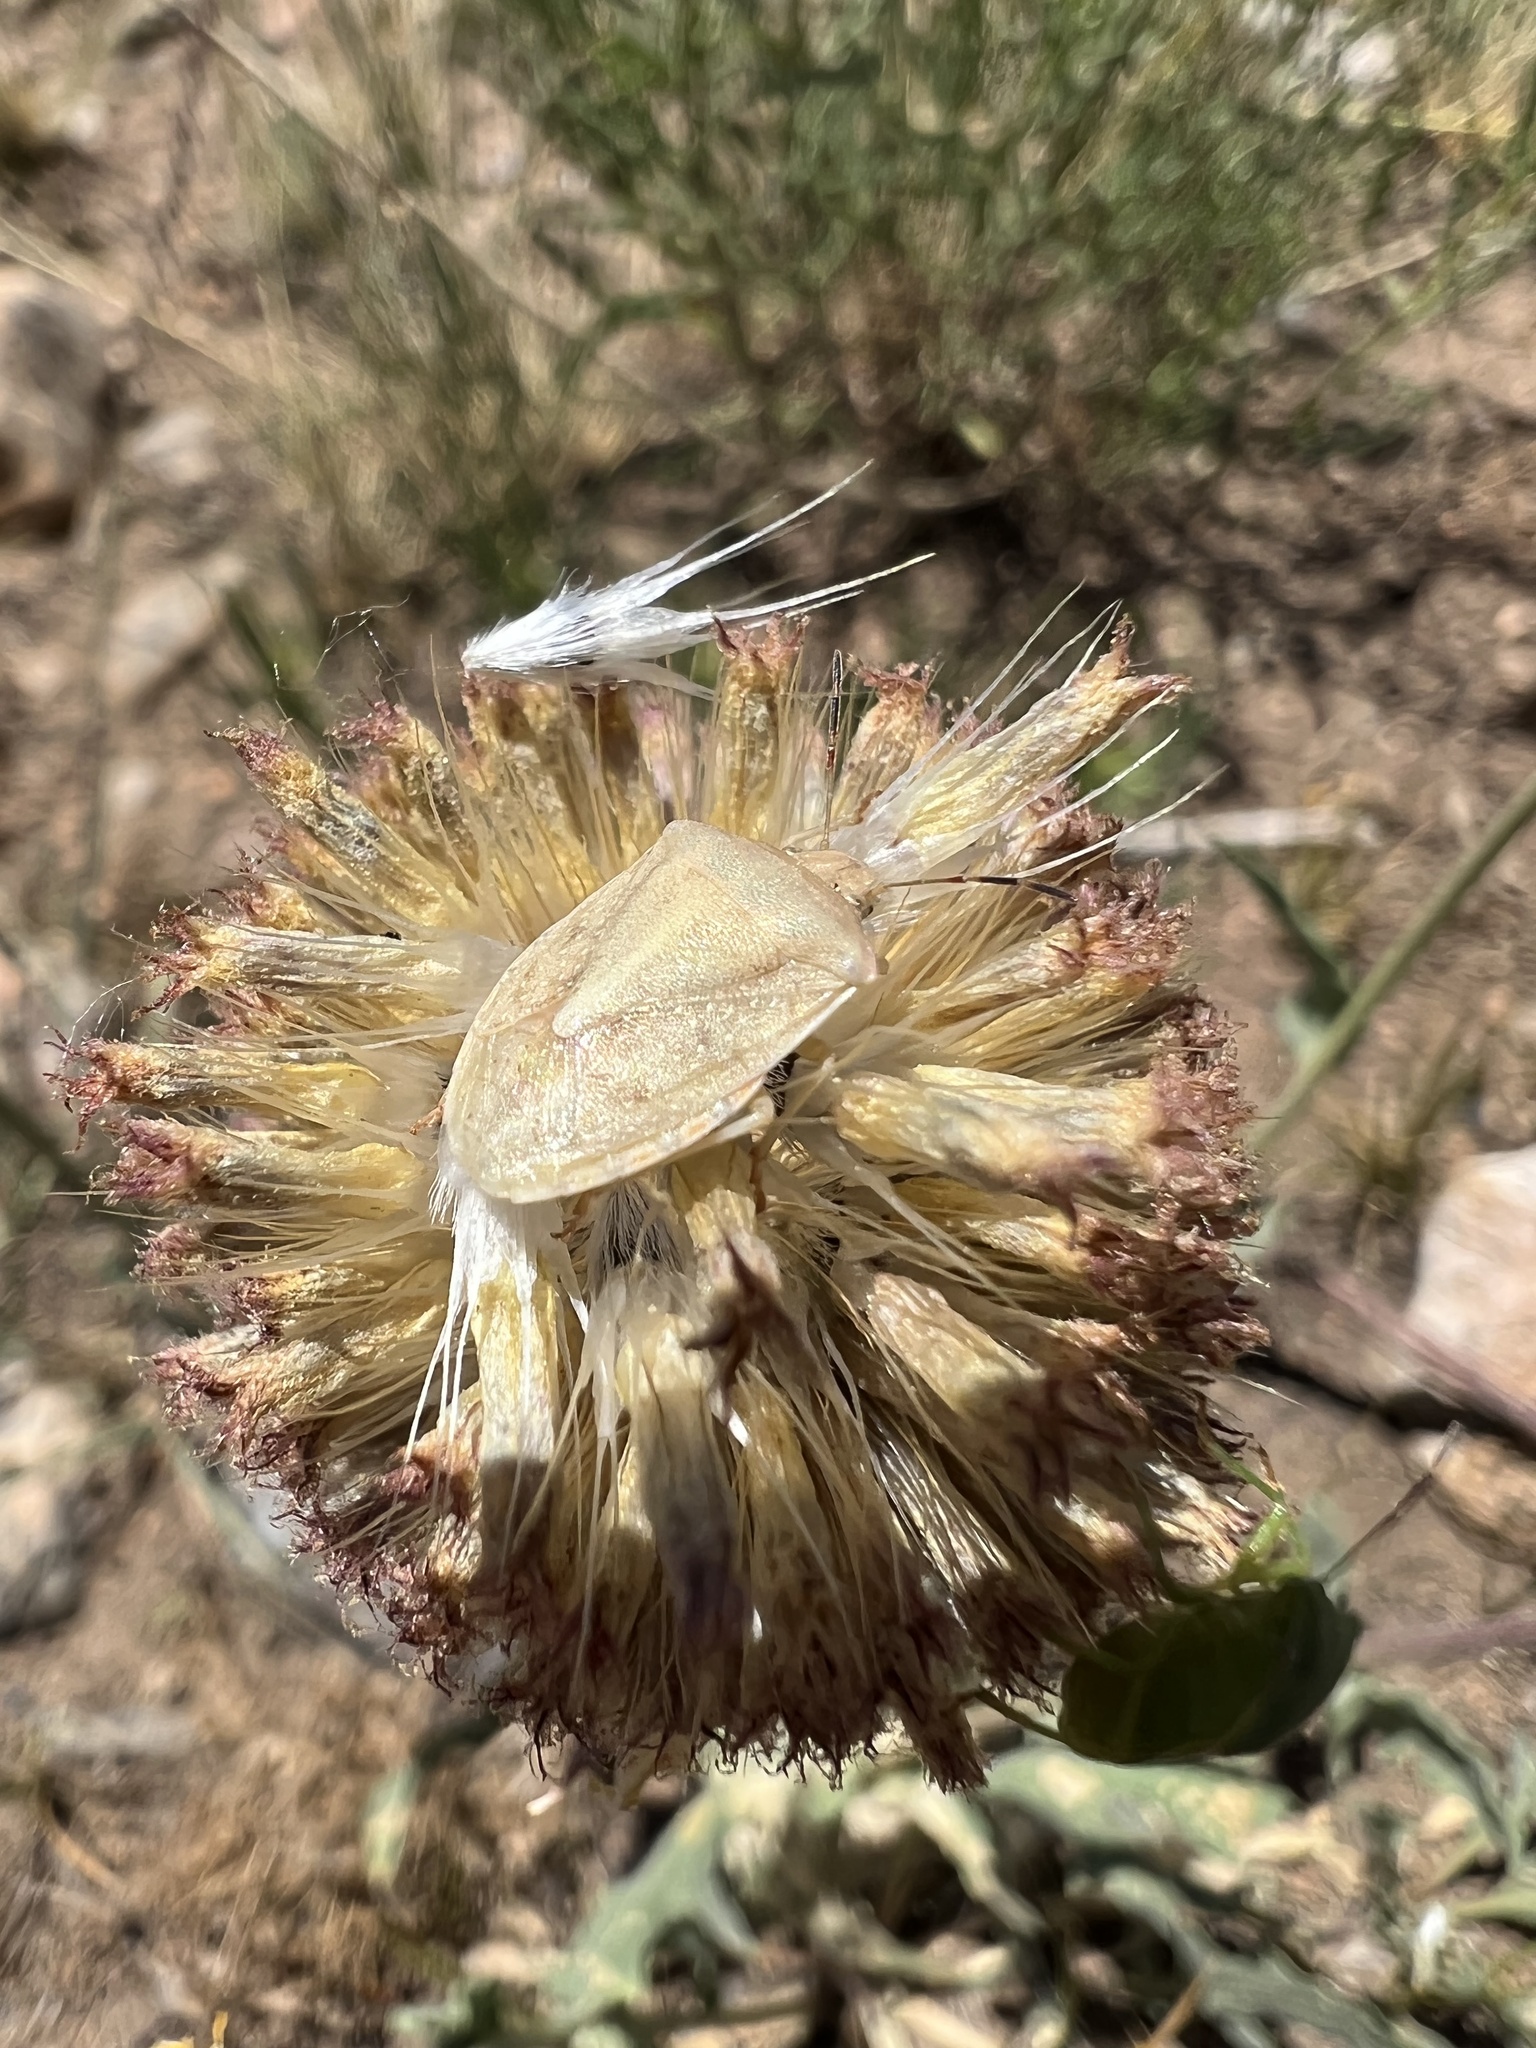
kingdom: Animalia
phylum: Arthropoda
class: Insecta
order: Hemiptera
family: Pentatomidae
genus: Thyanta
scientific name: Thyanta accerra
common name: Stink bug
